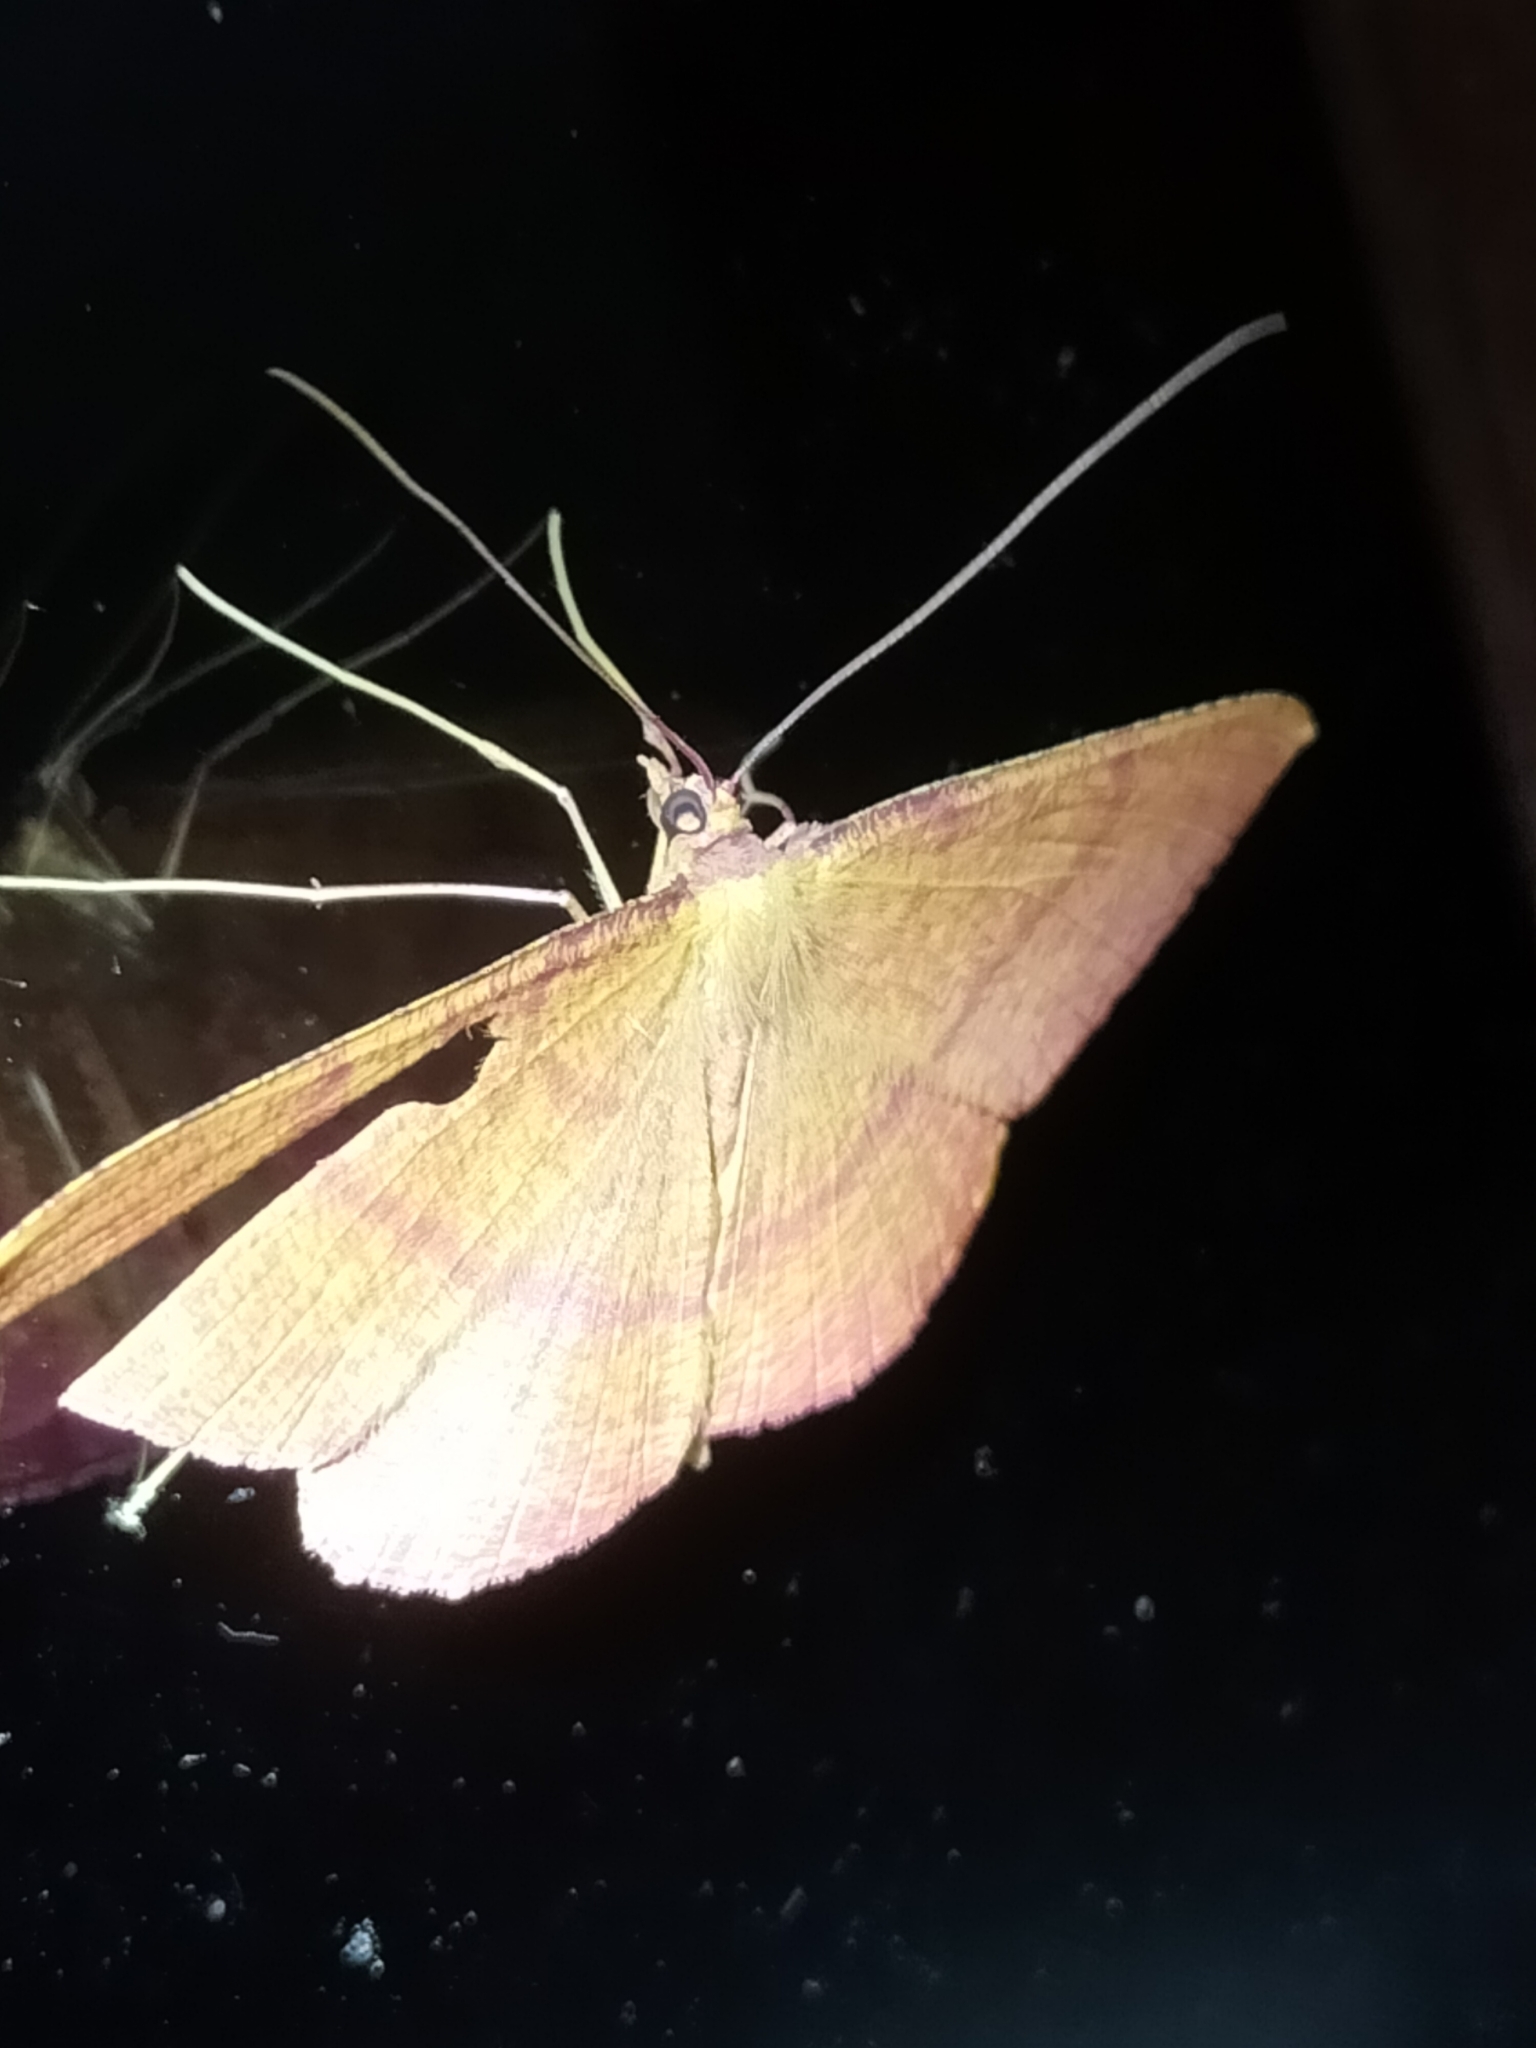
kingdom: Animalia
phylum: Arthropoda
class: Insecta
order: Lepidoptera
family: Geometridae
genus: Eumelea
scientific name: Eumelea rosalia
